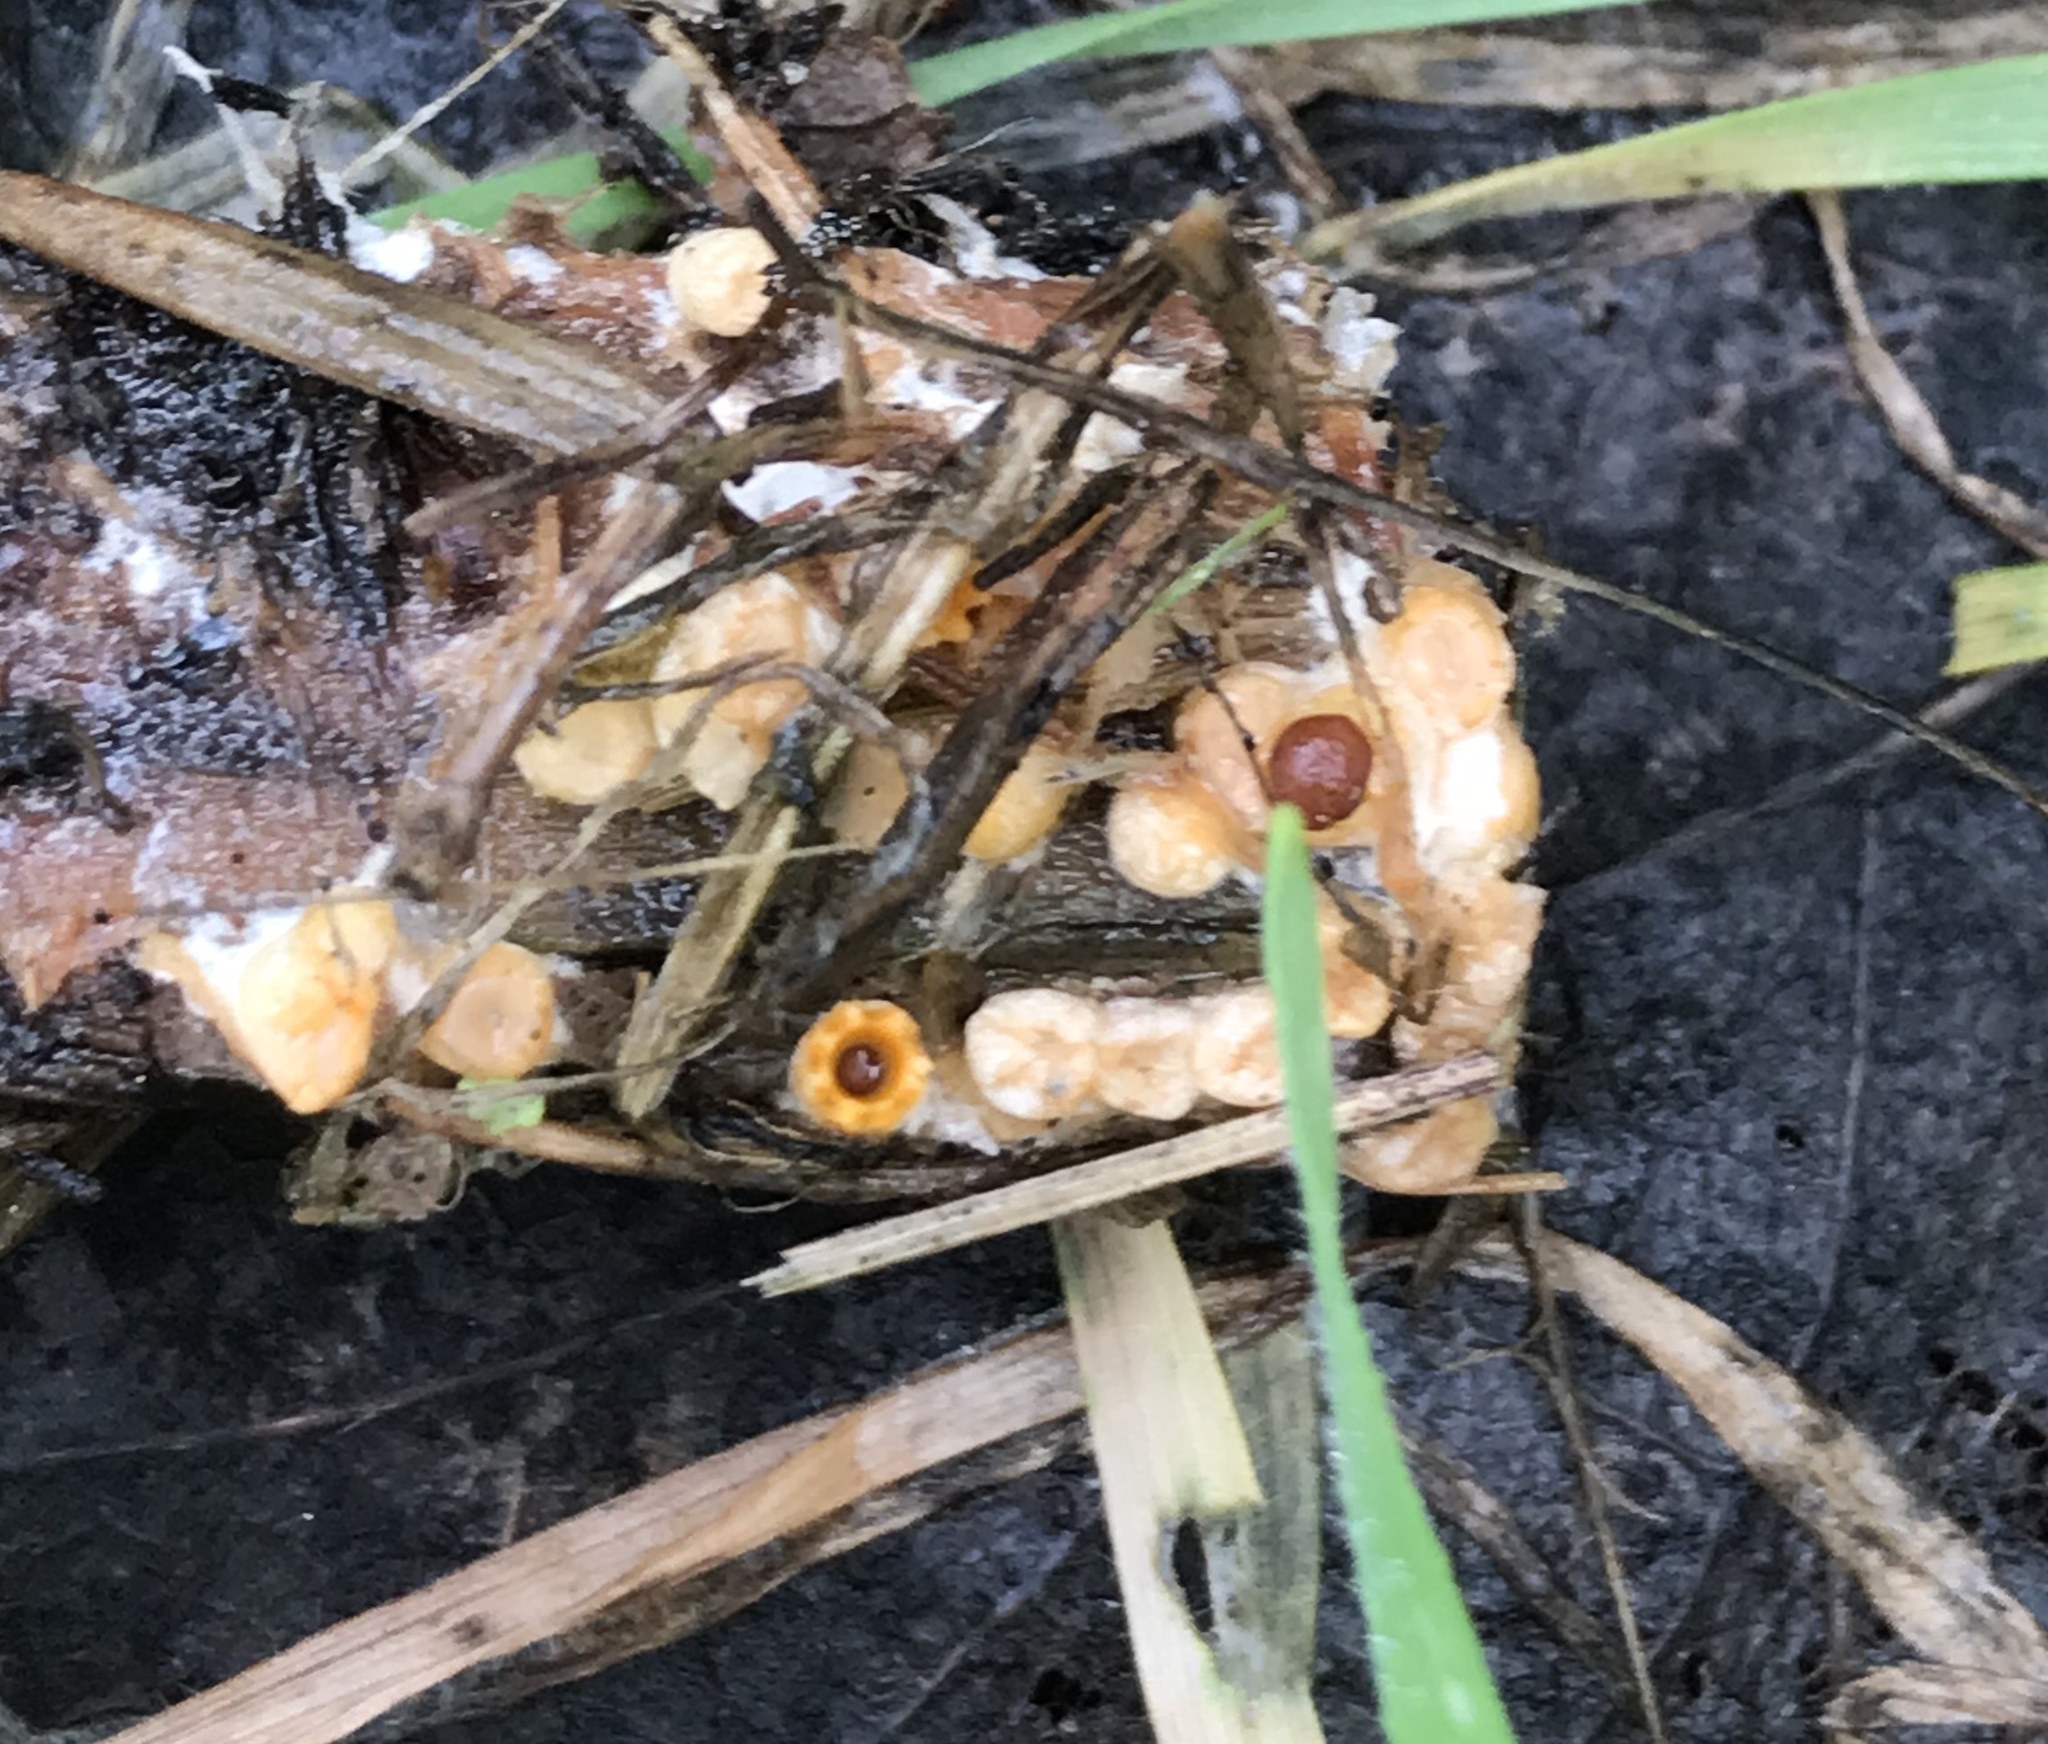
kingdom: Fungi
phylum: Basidiomycota
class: Agaricomycetes
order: Geastrales
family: Geastraceae
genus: Sphaerobolus
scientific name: Sphaerobolus stellatus
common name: Cannon fungus
